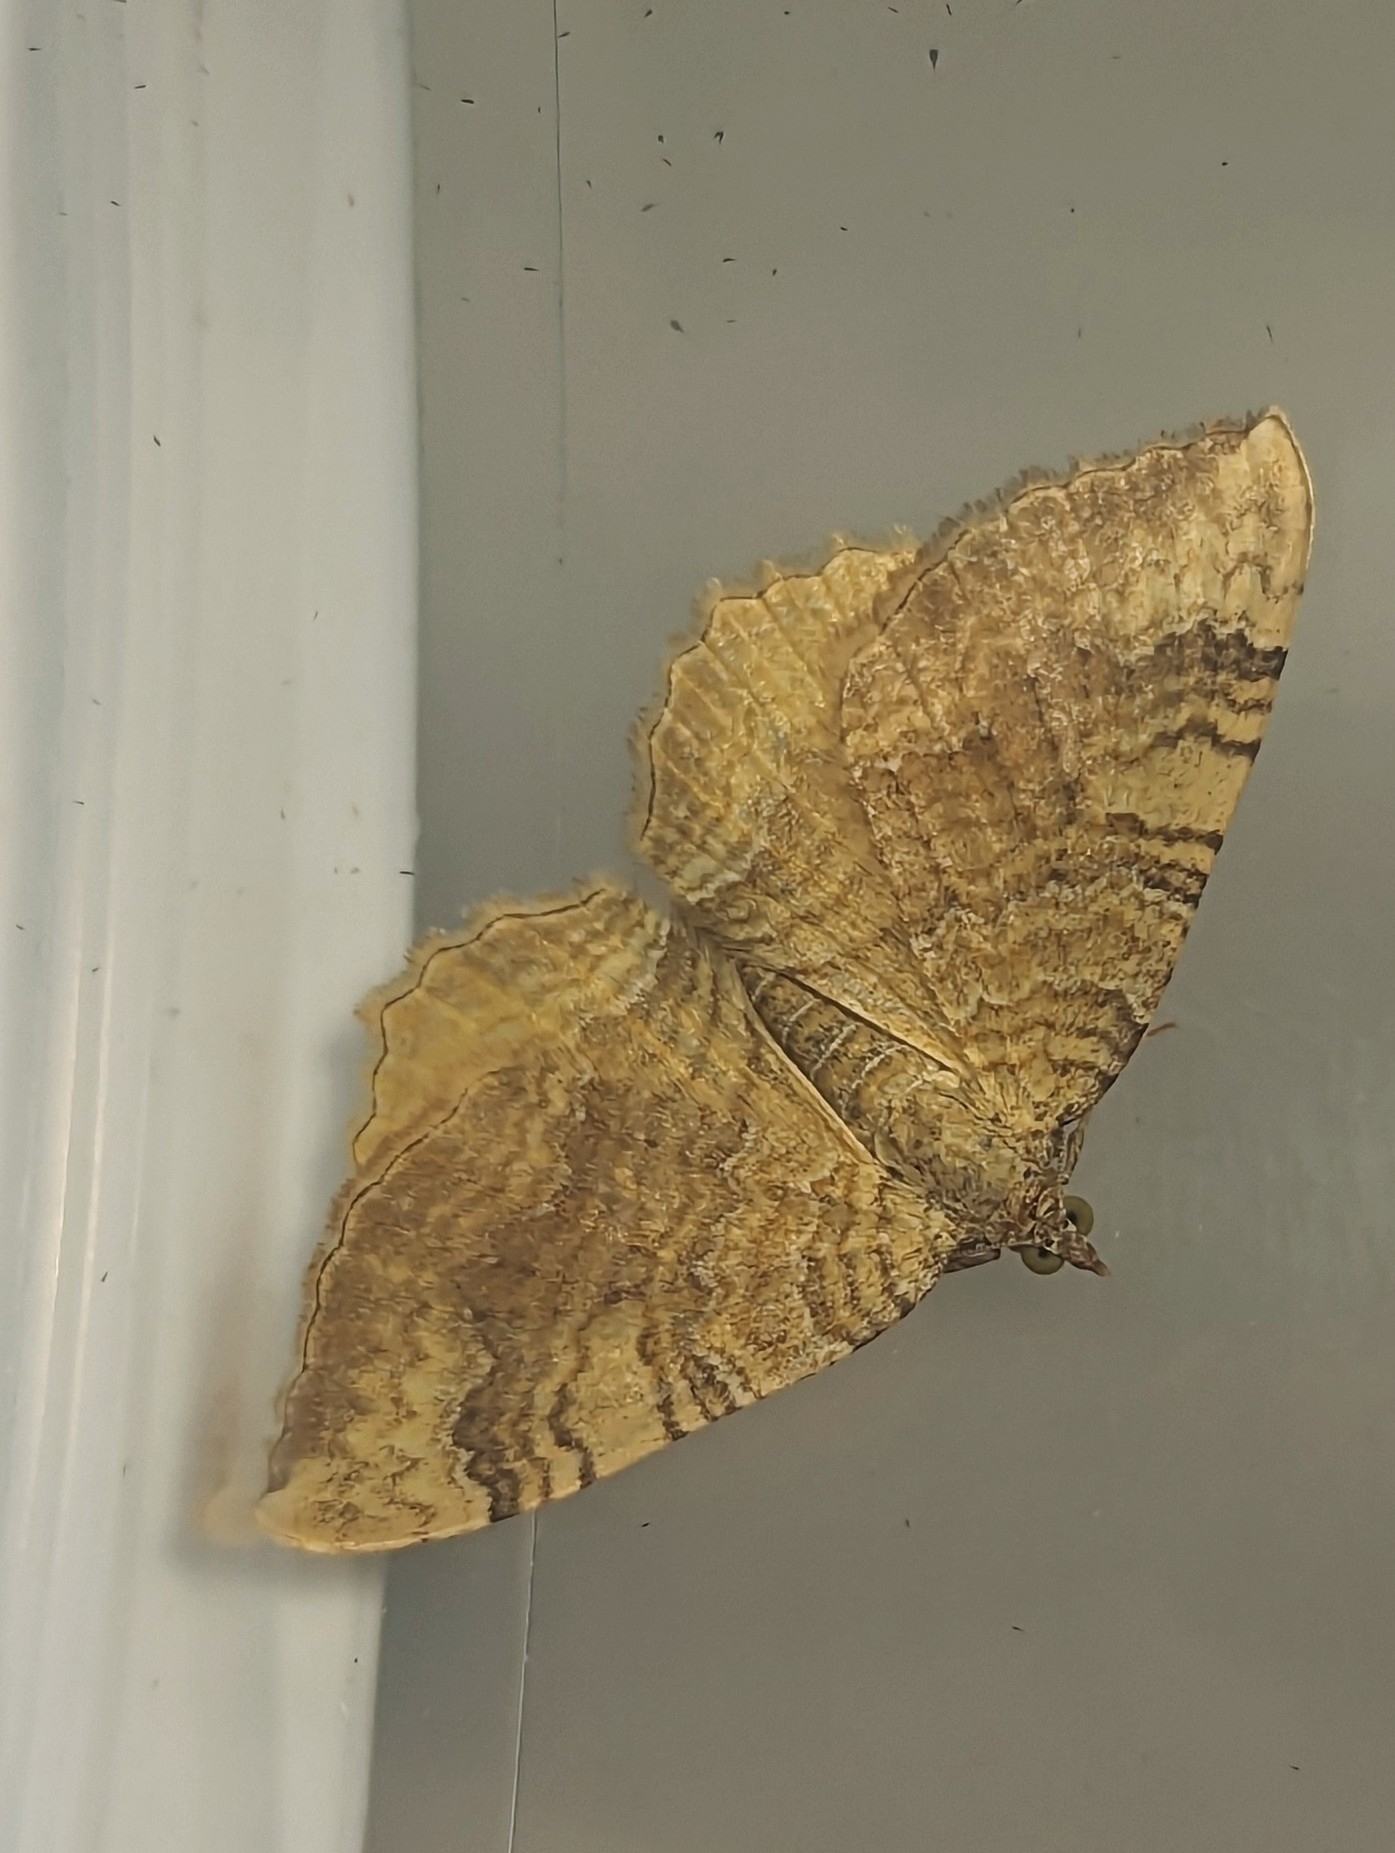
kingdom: Animalia
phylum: Arthropoda
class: Insecta
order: Lepidoptera
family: Geometridae
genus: Camptogramma
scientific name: Camptogramma bilineata
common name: Yellow shell
